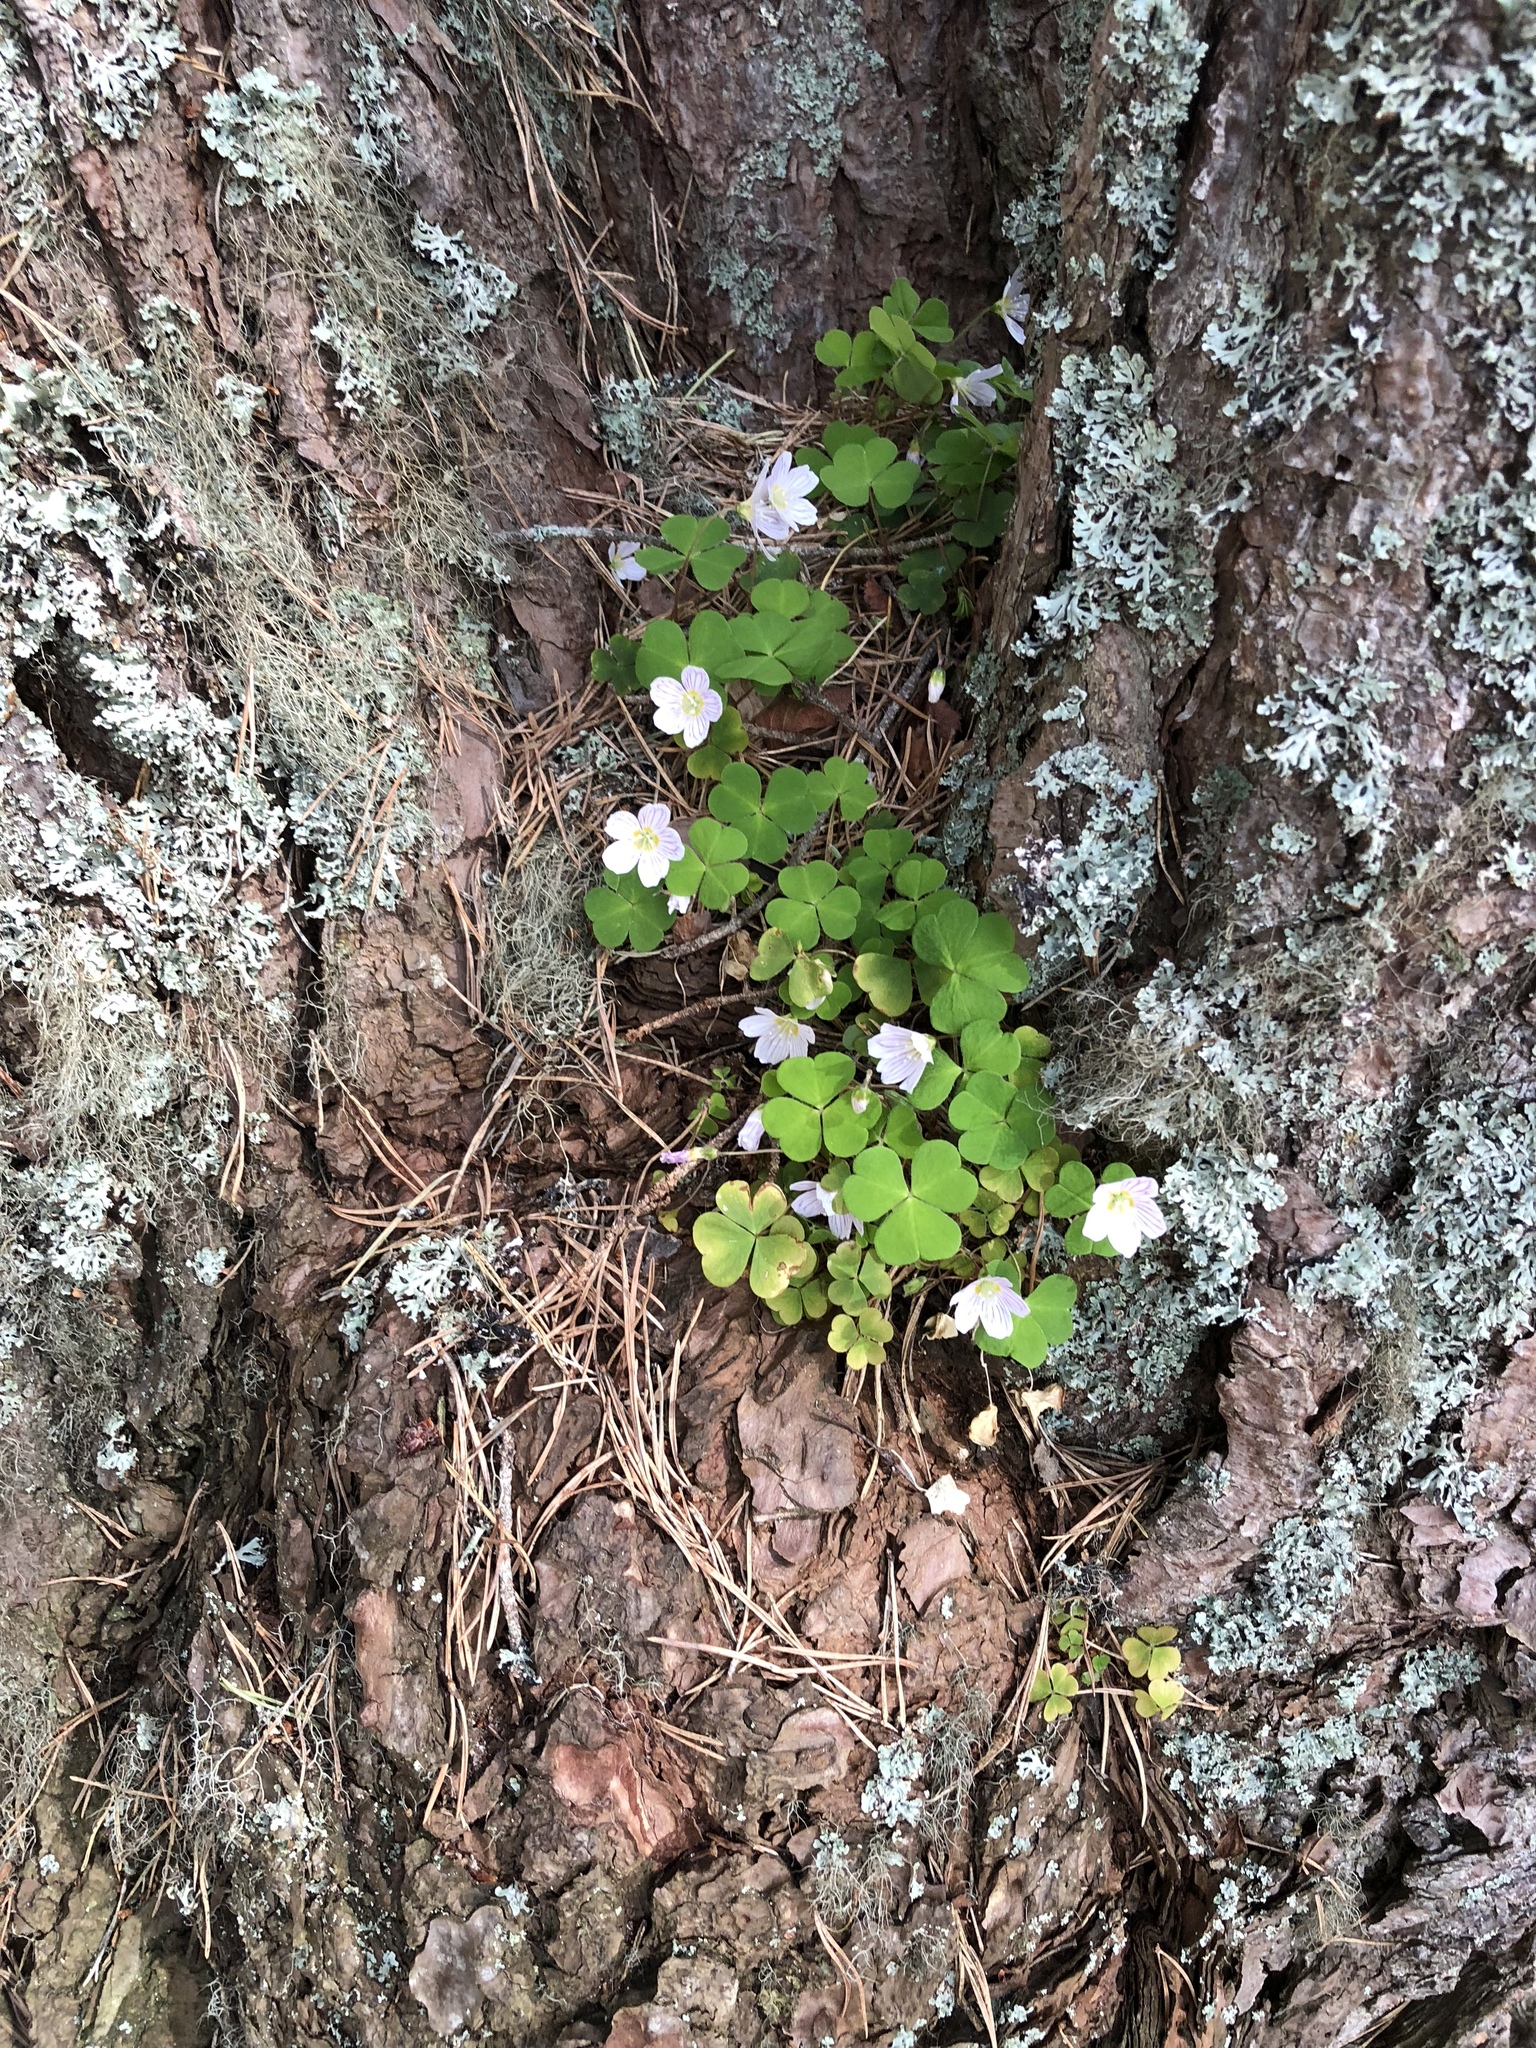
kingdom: Plantae
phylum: Tracheophyta
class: Magnoliopsida
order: Oxalidales
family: Oxalidaceae
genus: Oxalis
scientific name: Oxalis acetosella
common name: Wood-sorrel
